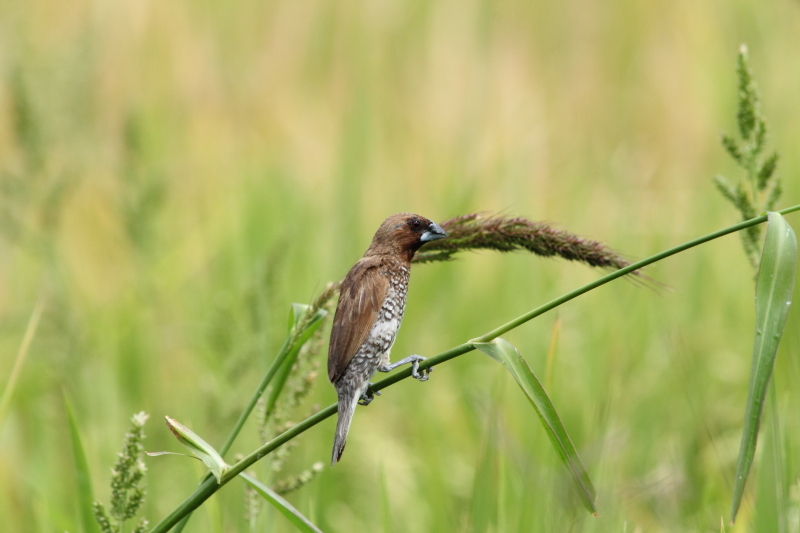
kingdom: Animalia
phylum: Chordata
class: Aves
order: Passeriformes
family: Estrildidae
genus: Lonchura
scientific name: Lonchura punctulata
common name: Scaly-breasted munia
